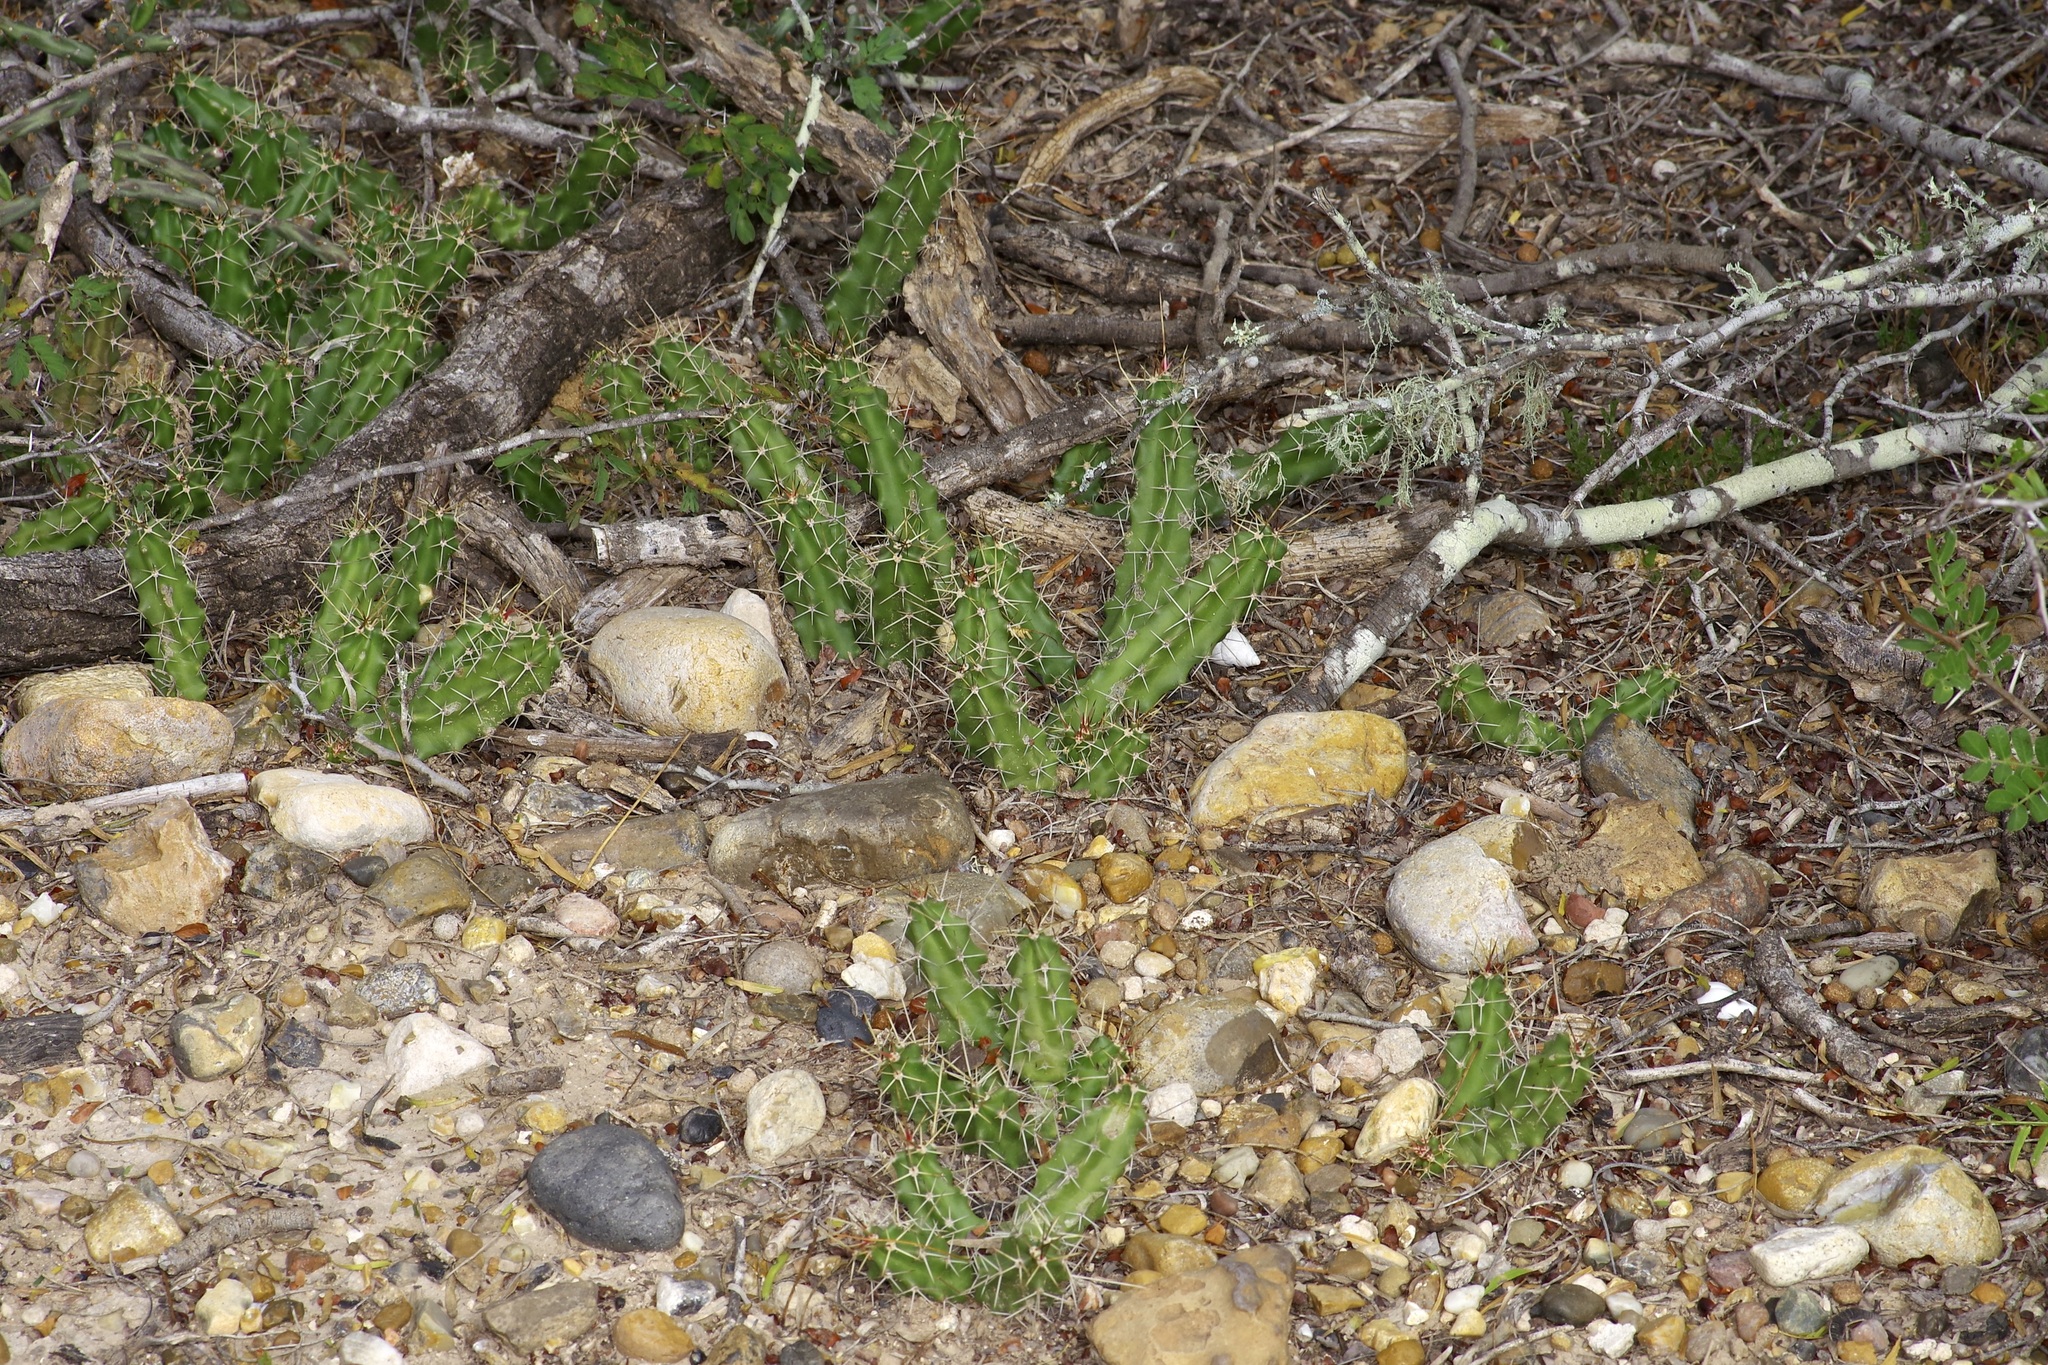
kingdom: Plantae
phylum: Tracheophyta
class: Magnoliopsida
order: Caryophyllales
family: Cactaceae
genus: Echinocereus
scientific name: Echinocereus pentalophus
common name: Ladyfinger cactus
